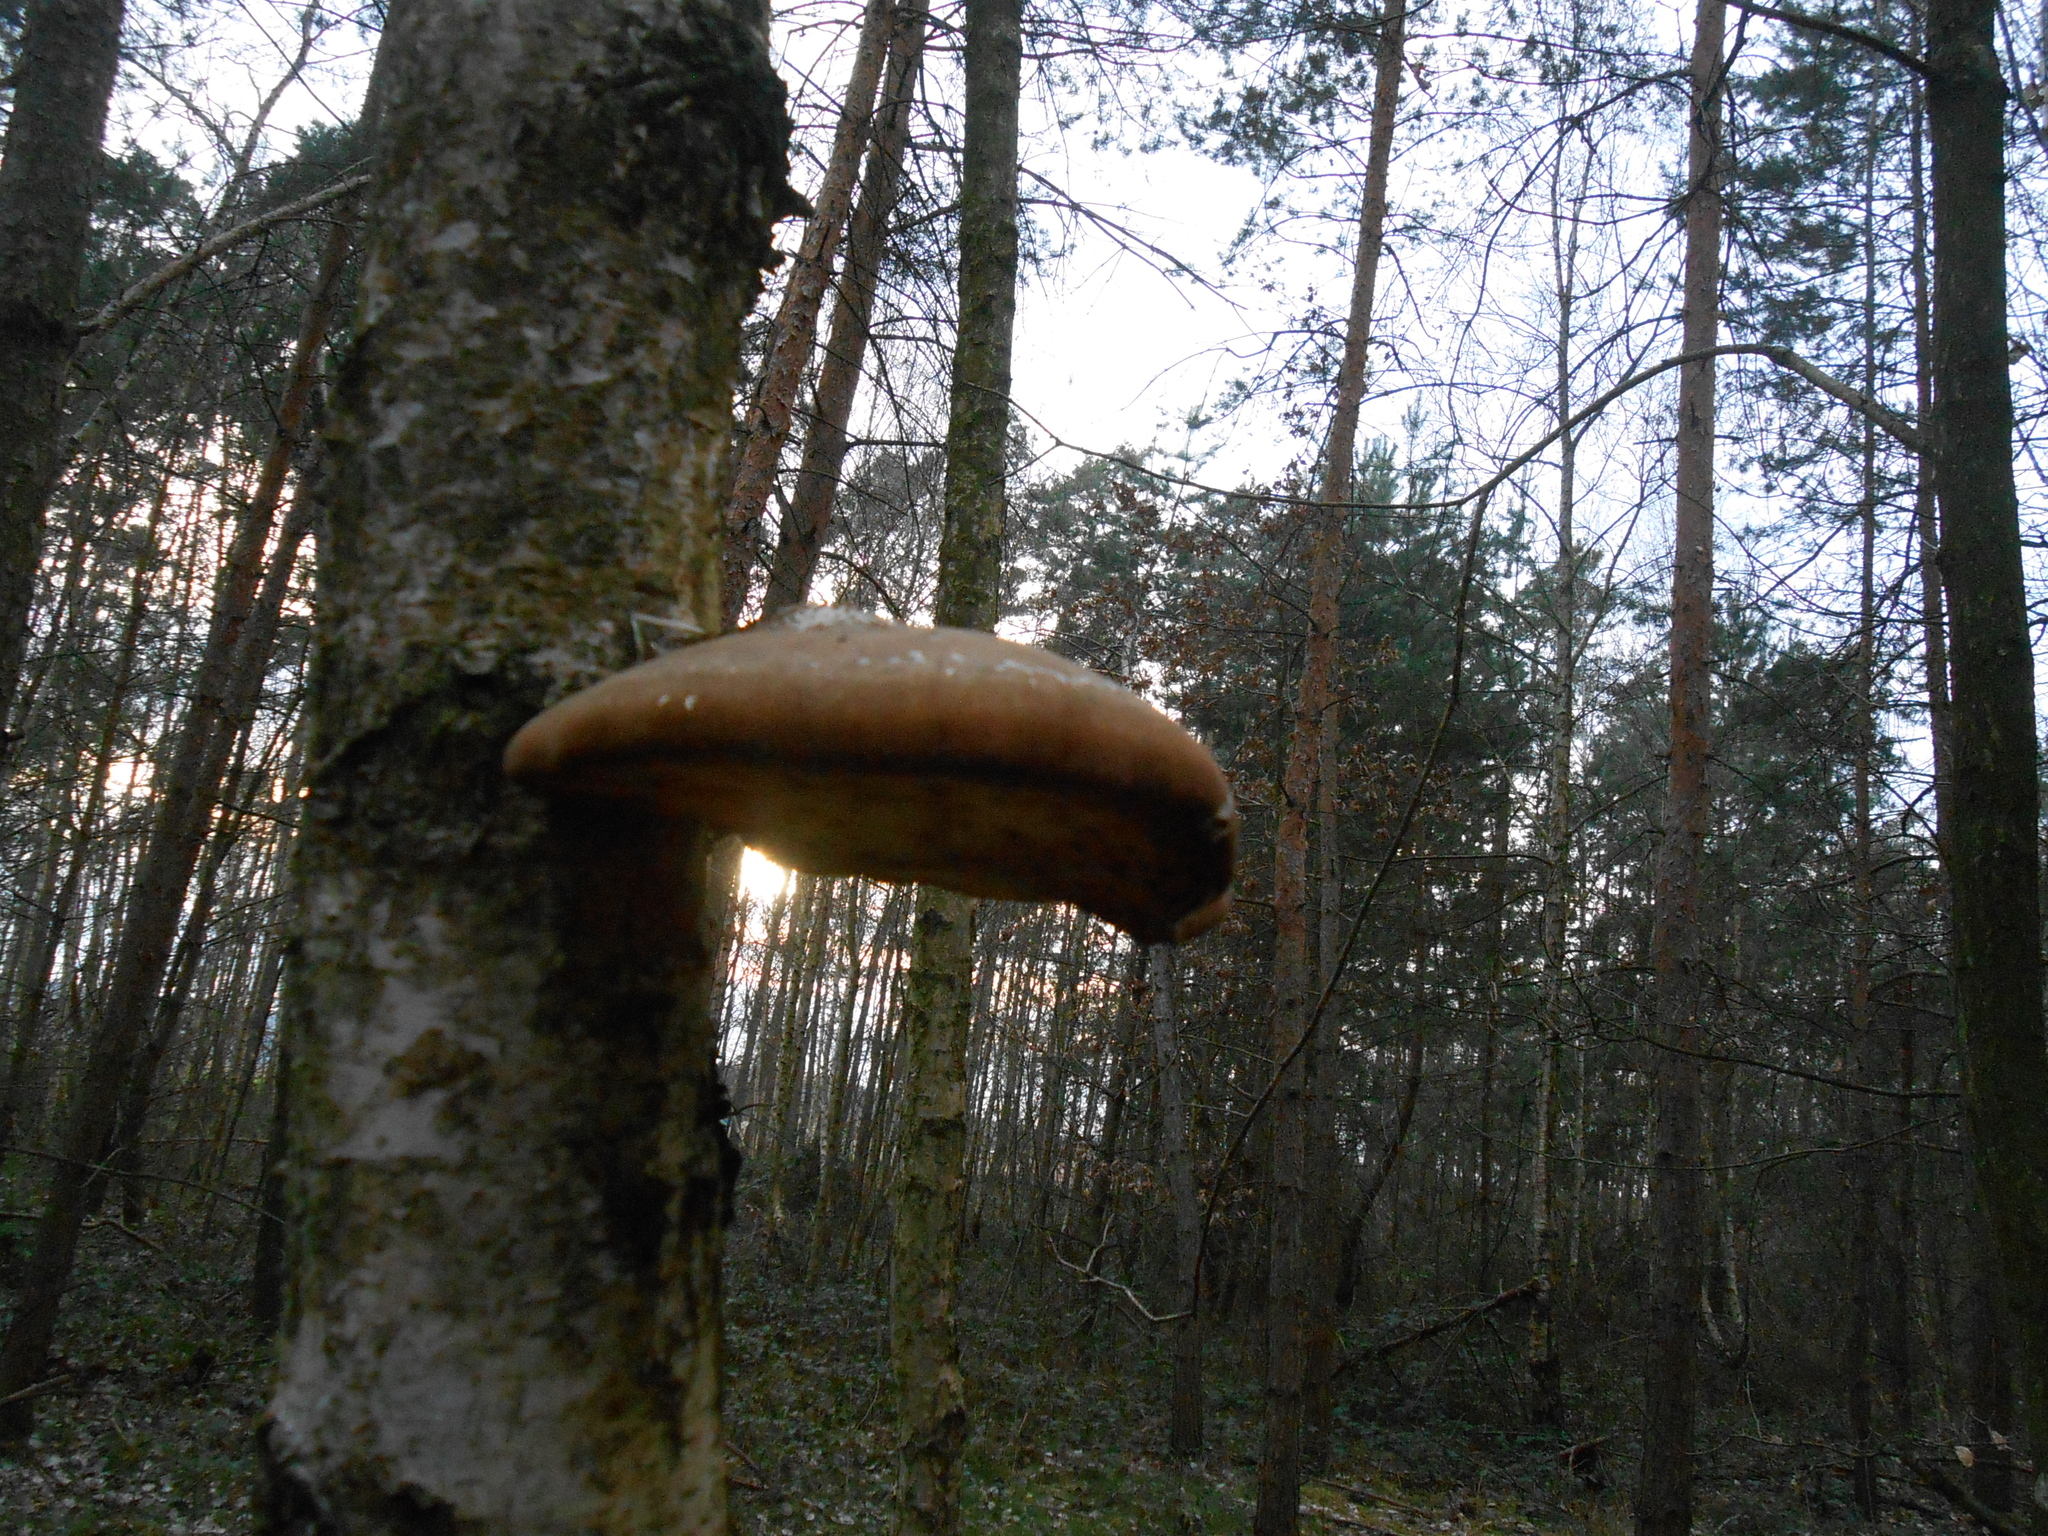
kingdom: Fungi
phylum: Basidiomycota
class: Agaricomycetes
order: Polyporales
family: Fomitopsidaceae
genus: Fomitopsis
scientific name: Fomitopsis betulina
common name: Birch polypore
